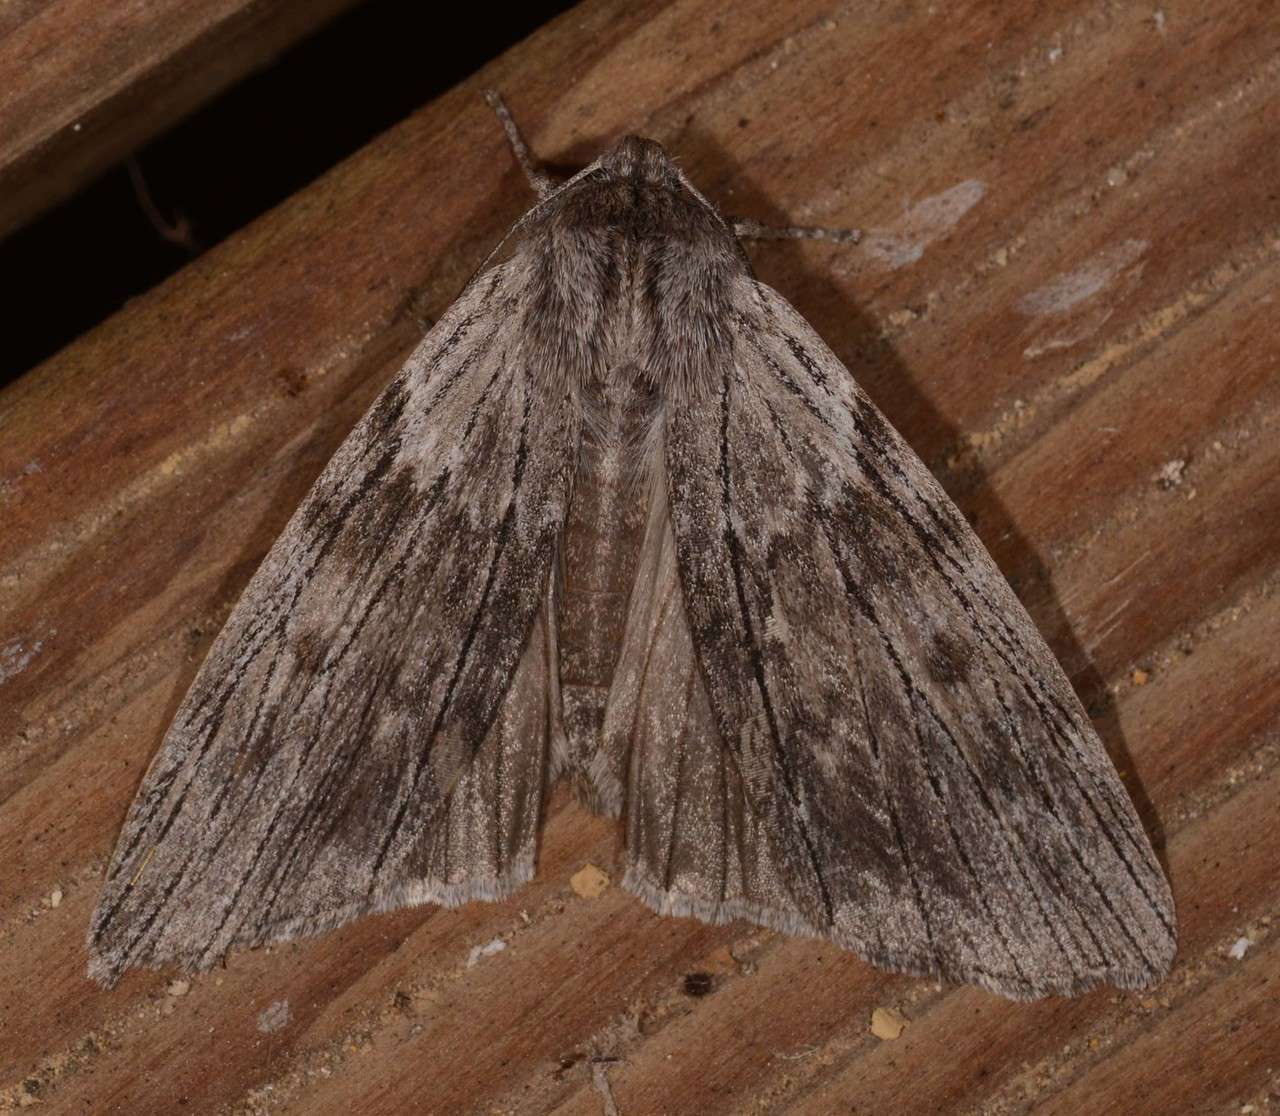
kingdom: Animalia
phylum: Arthropoda
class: Insecta
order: Lepidoptera
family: Geometridae
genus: Capusa
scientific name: Capusa graodes
